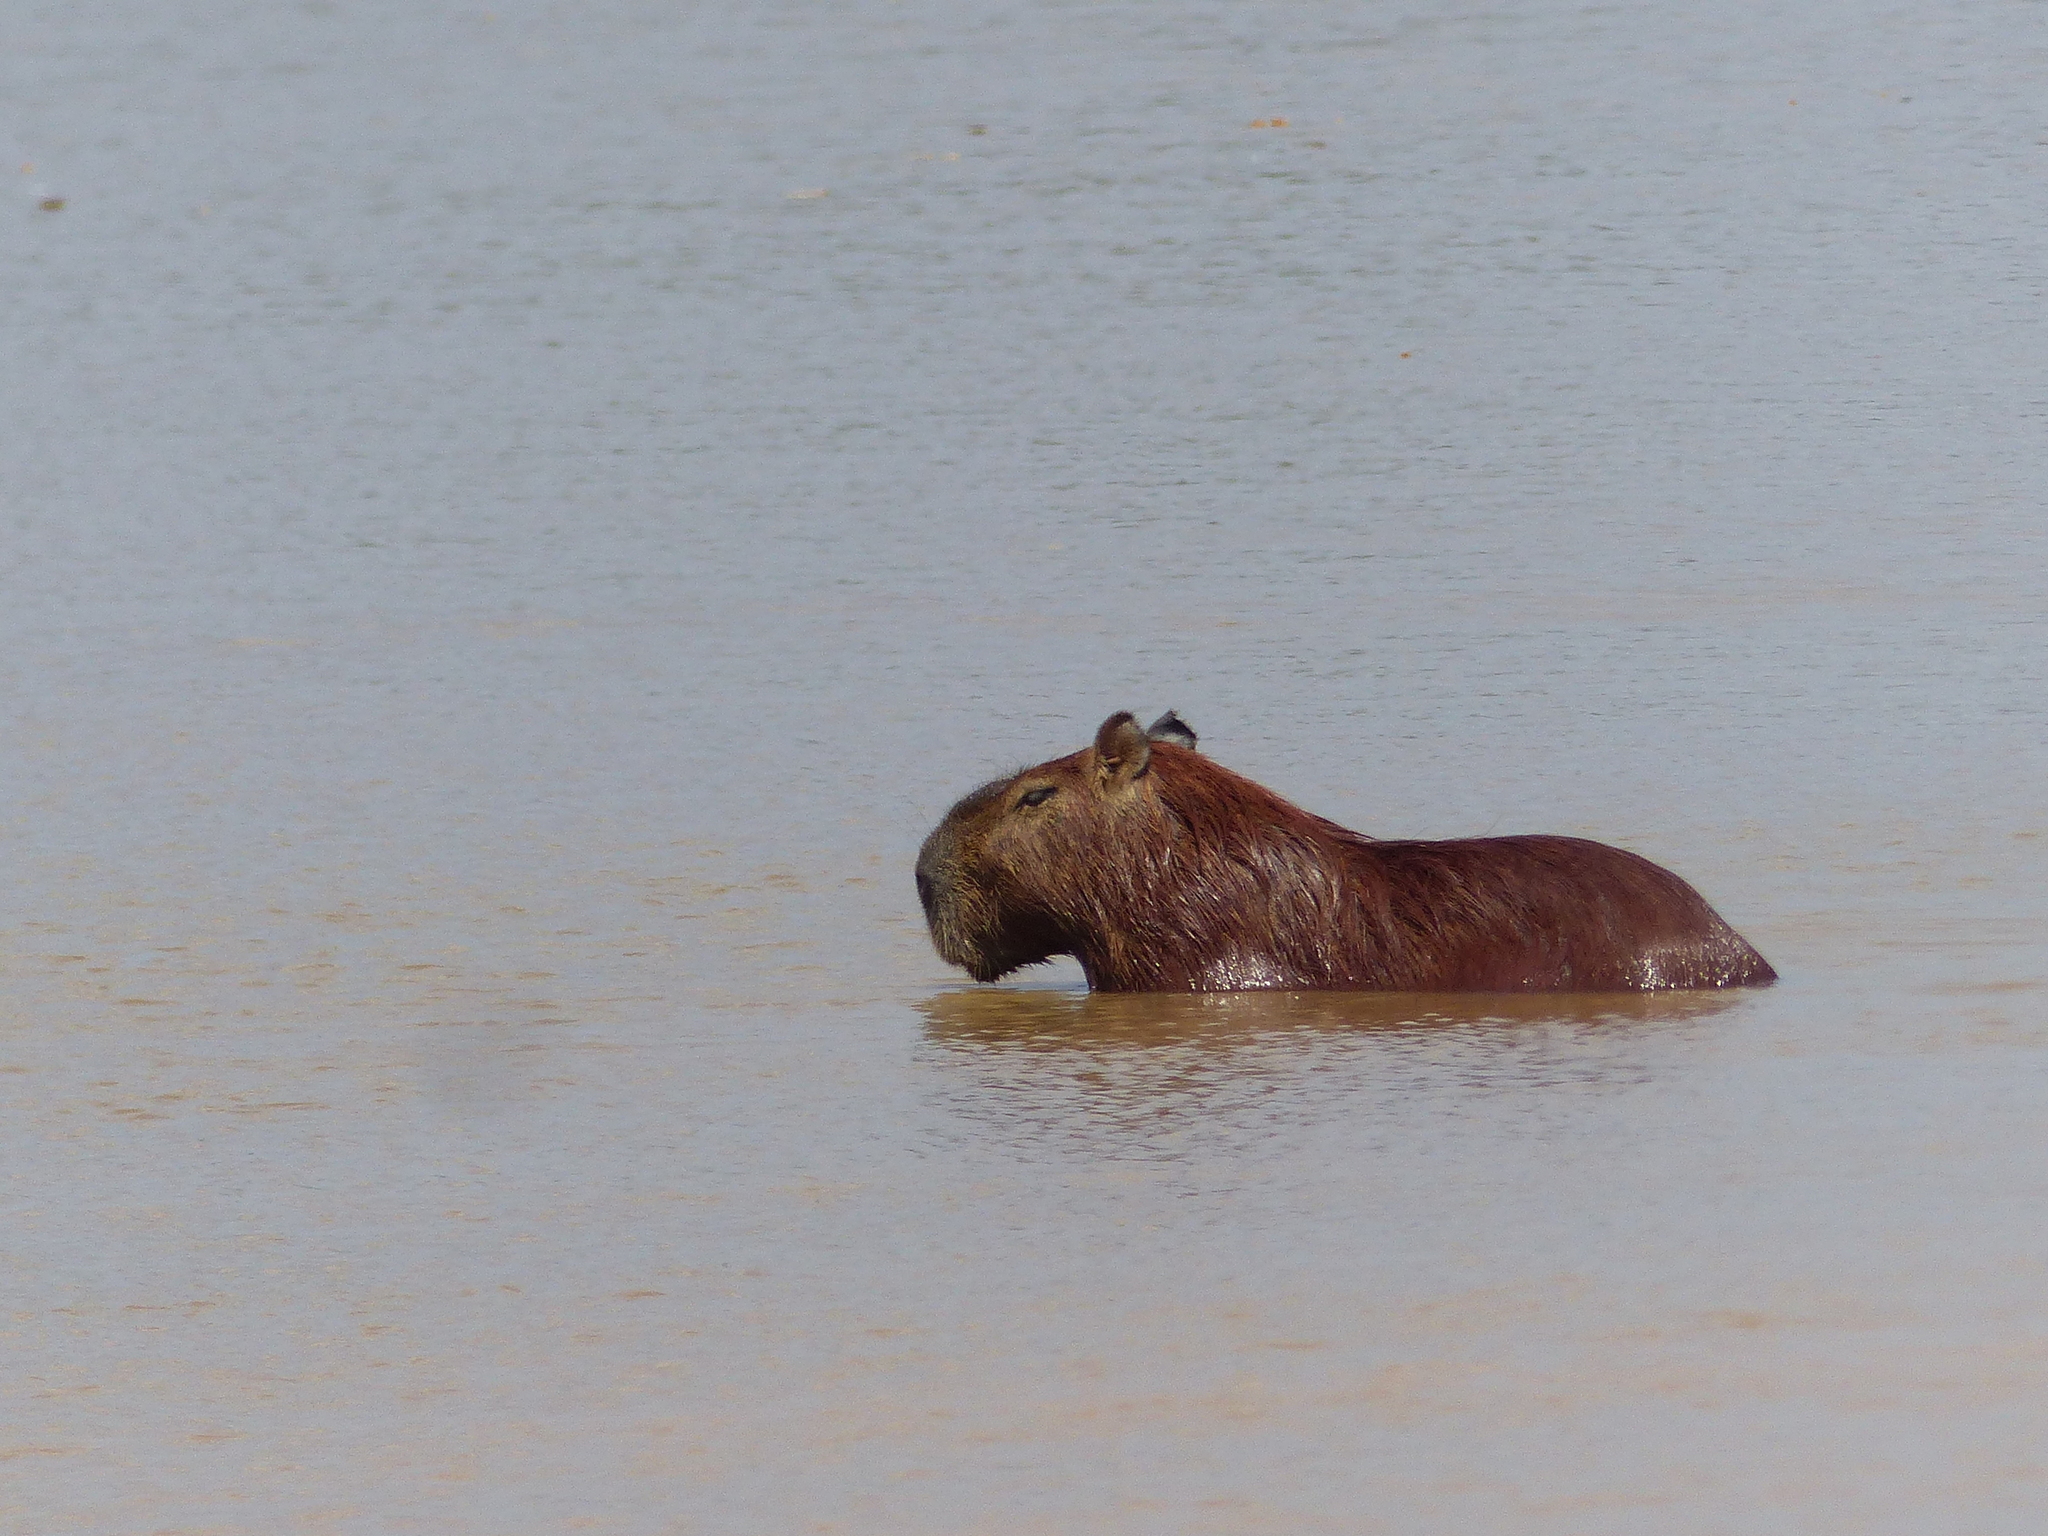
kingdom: Animalia
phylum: Chordata
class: Mammalia
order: Rodentia
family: Caviidae
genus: Hydrochoerus
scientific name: Hydrochoerus hydrochaeris
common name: Capybara
